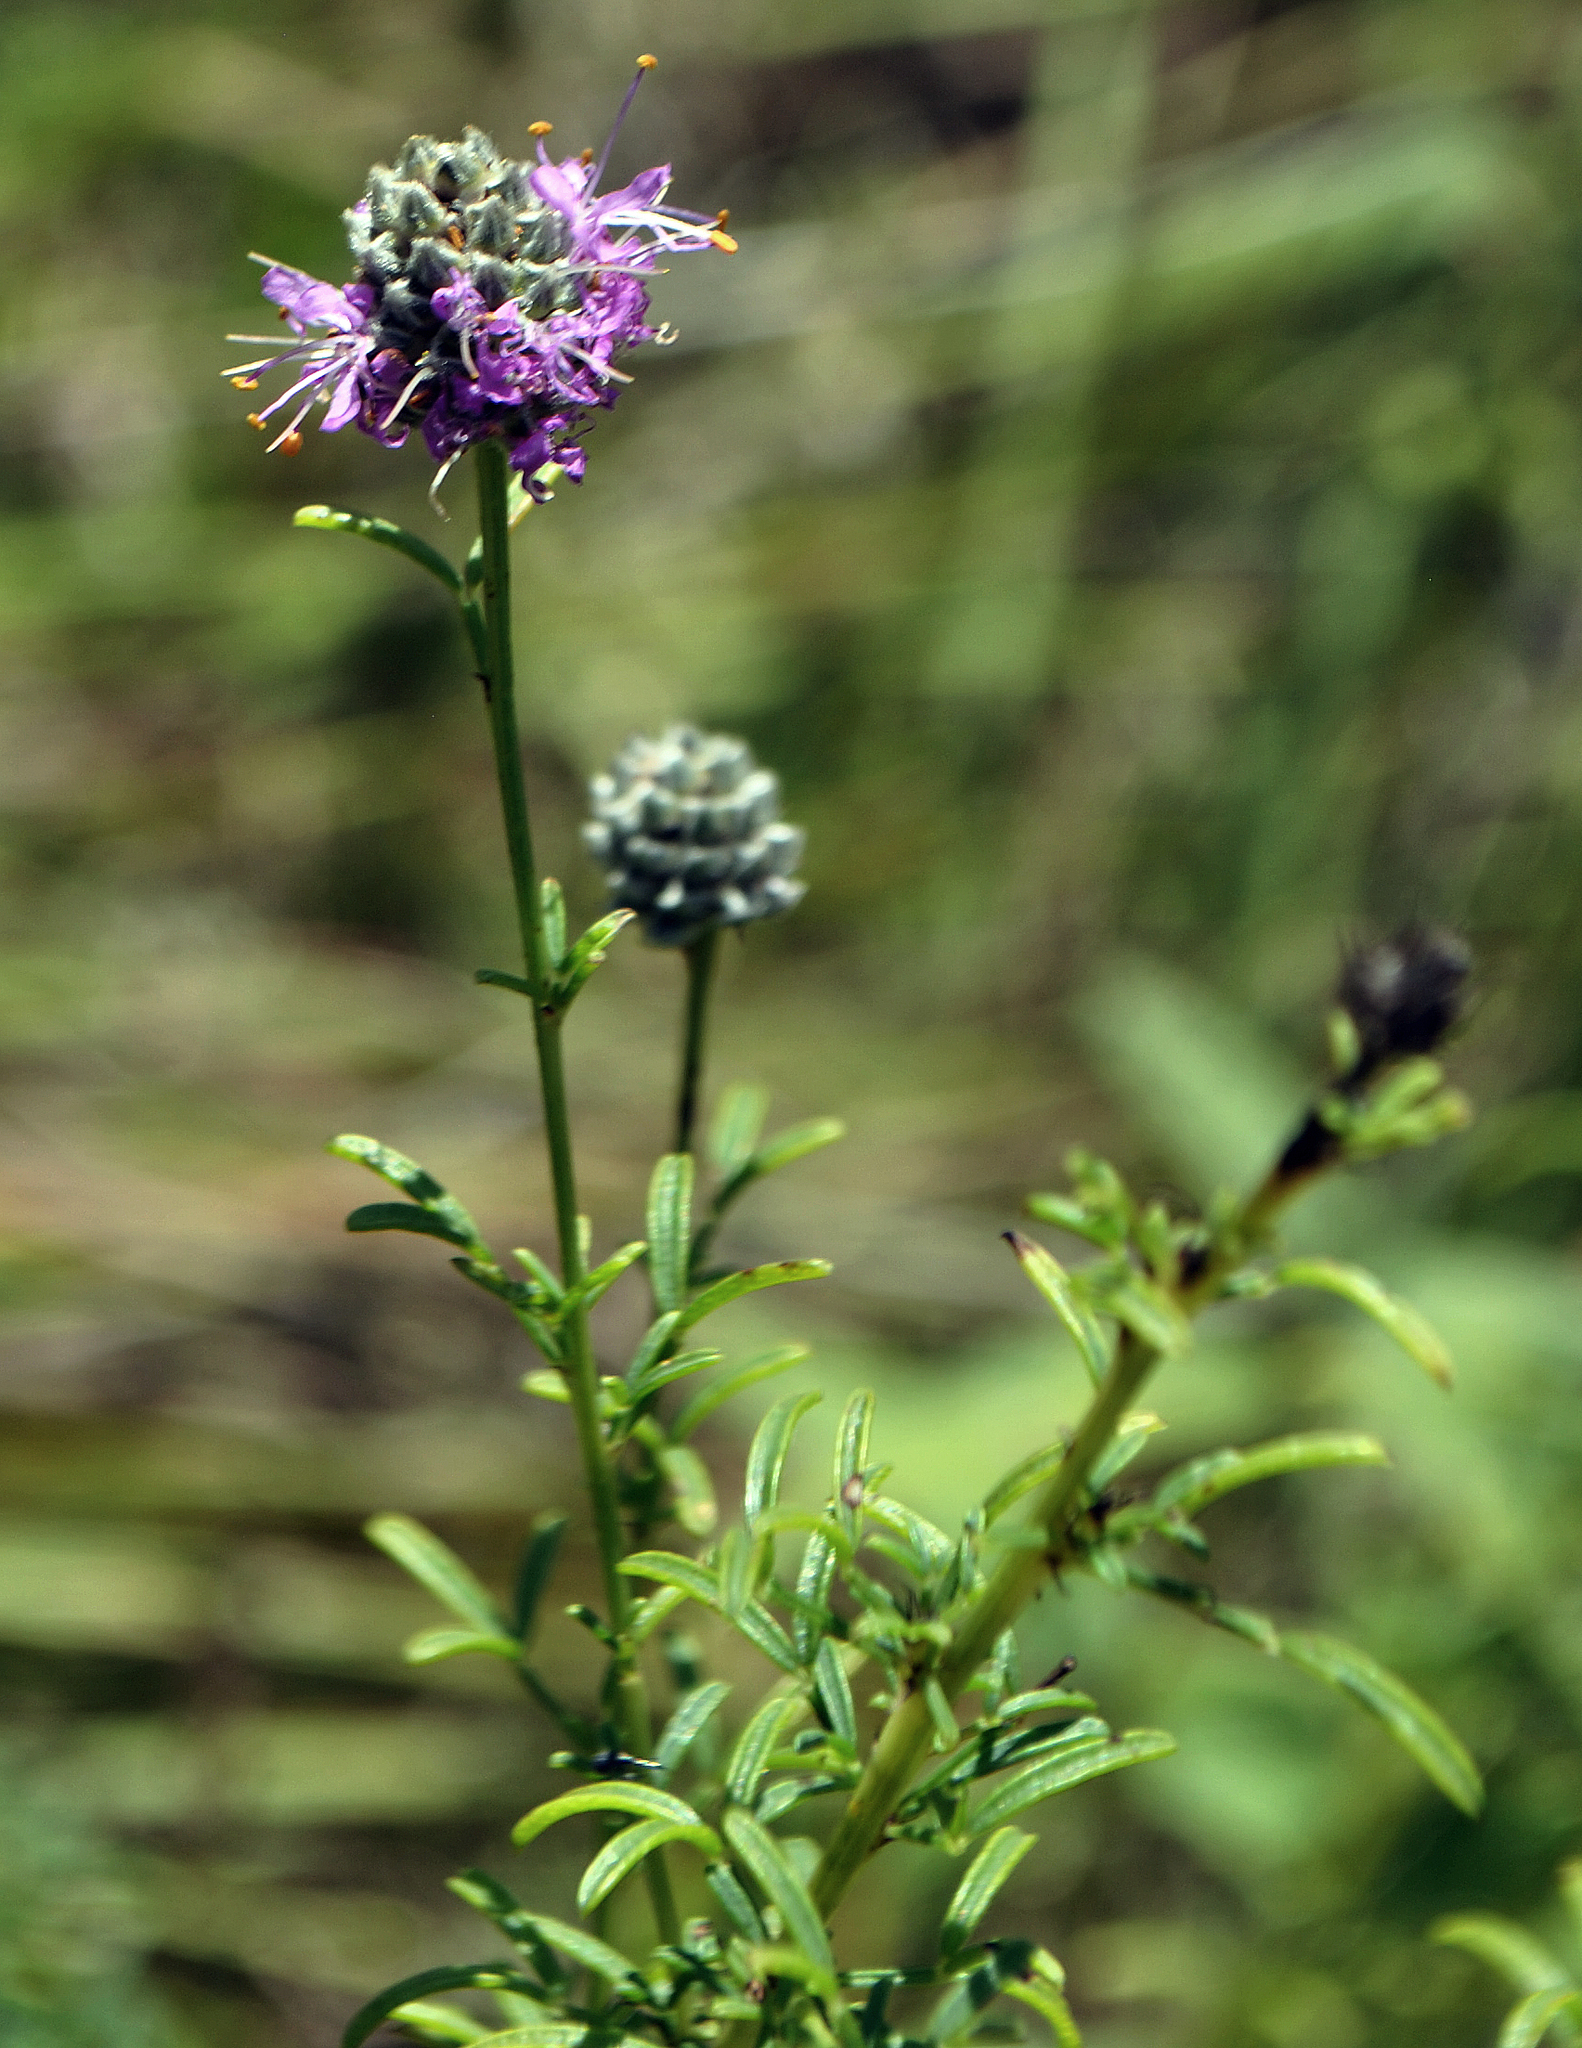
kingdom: Plantae
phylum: Tracheophyta
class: Magnoliopsida
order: Fabales
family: Fabaceae
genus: Dalea
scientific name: Dalea purpurea
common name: Purple prairie-clover
